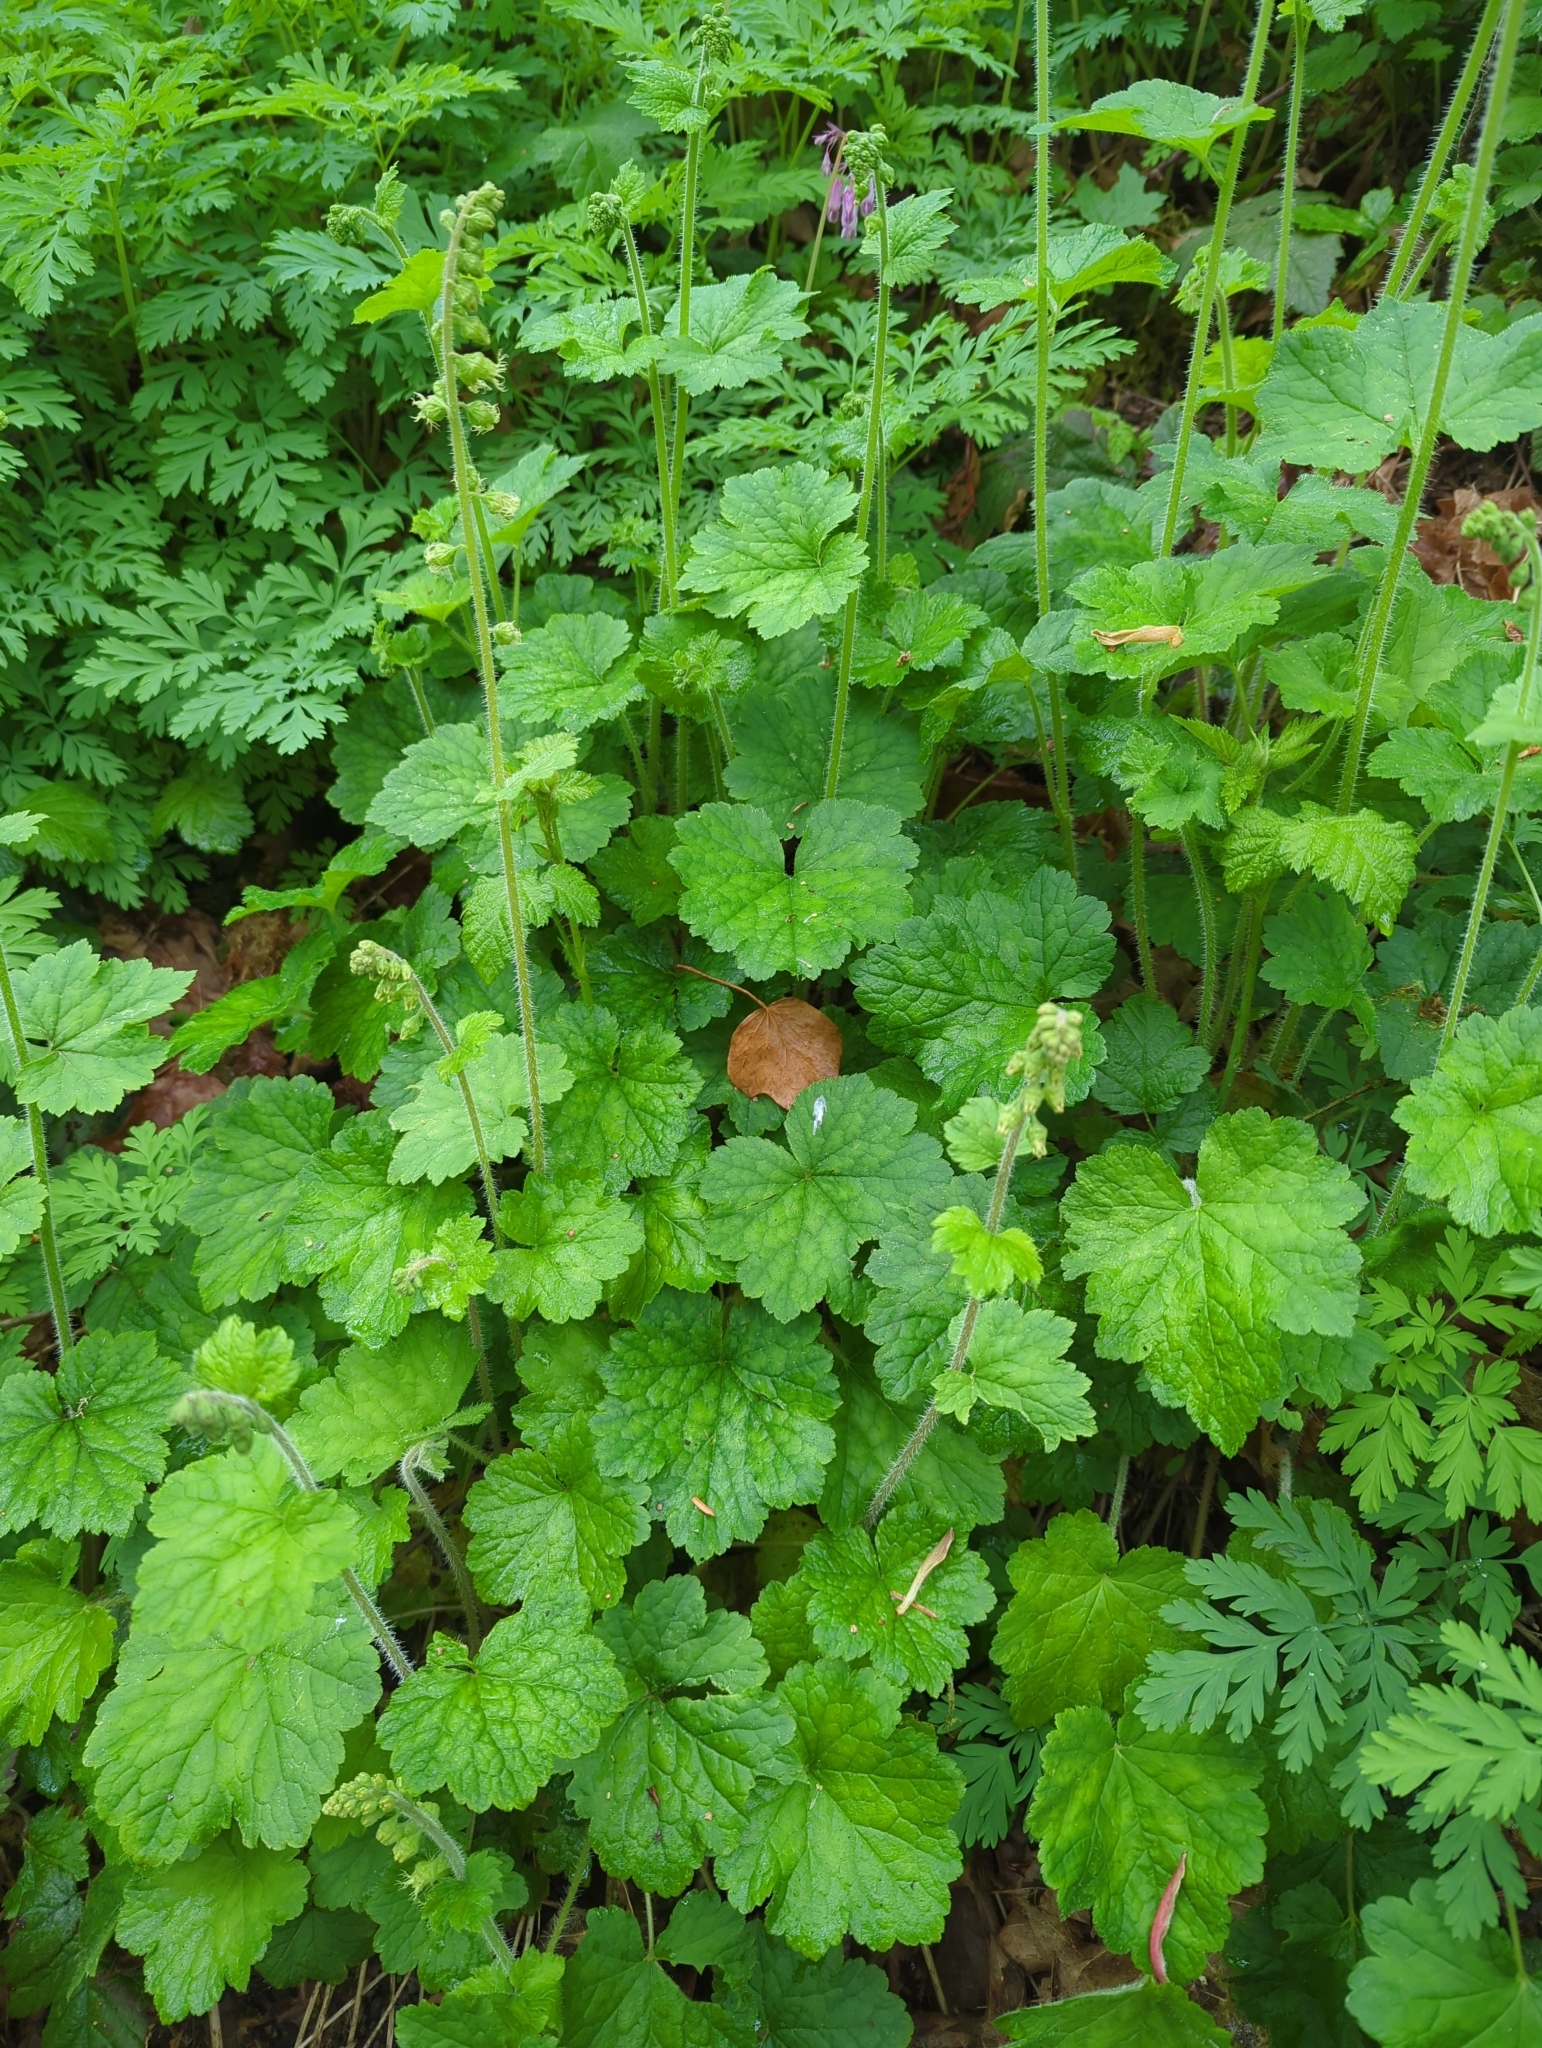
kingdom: Plantae
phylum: Tracheophyta
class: Magnoliopsida
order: Saxifragales
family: Saxifragaceae
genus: Tellima
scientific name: Tellima grandiflora
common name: Fringecups
